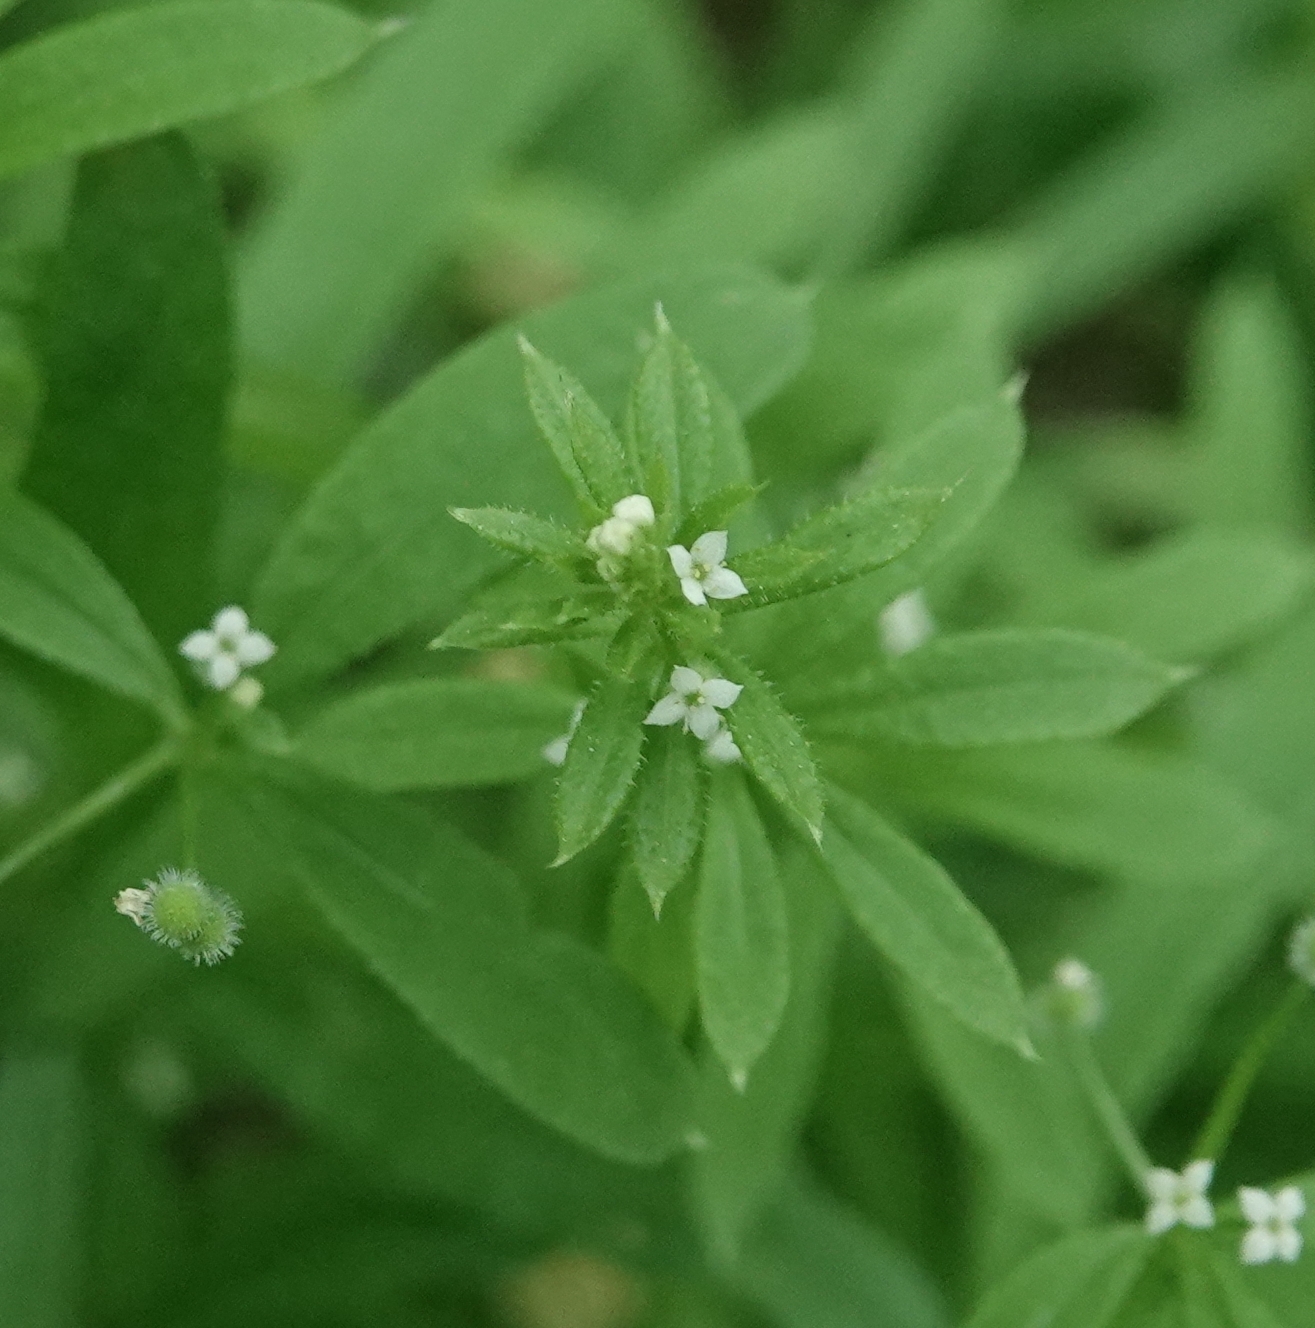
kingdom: Plantae
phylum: Tracheophyta
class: Magnoliopsida
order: Gentianales
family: Rubiaceae
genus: Galium
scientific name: Galium aparine
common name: Cleavers
